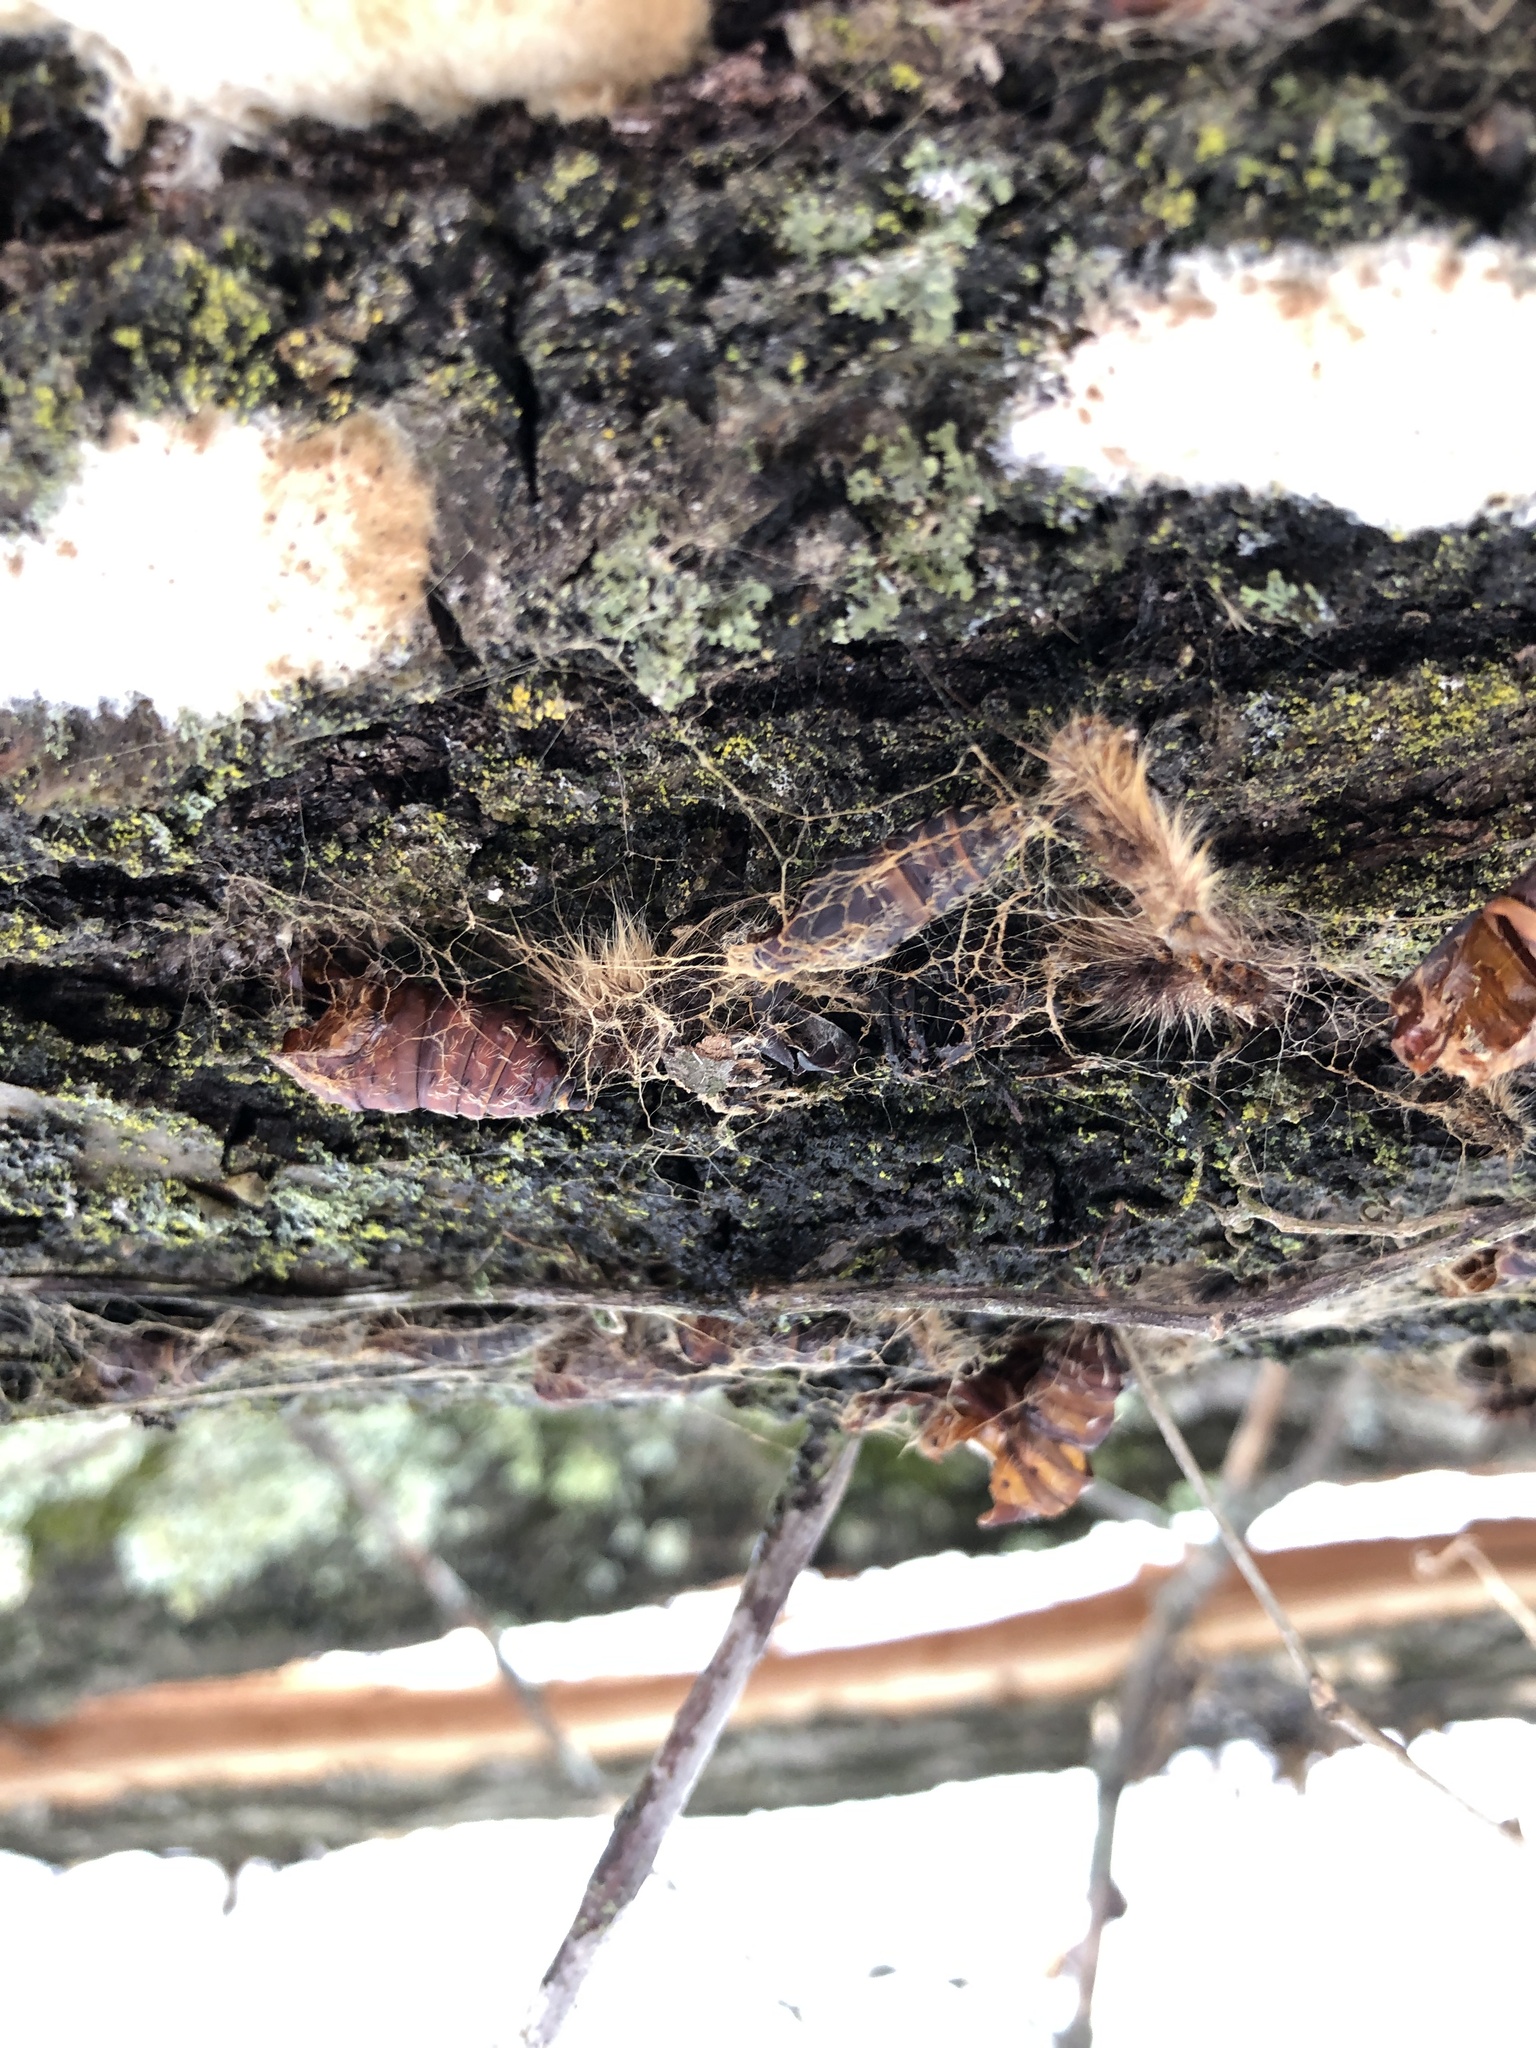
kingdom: Animalia
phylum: Arthropoda
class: Insecta
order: Lepidoptera
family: Erebidae
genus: Lymantria
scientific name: Lymantria dispar
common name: Gypsy moth
